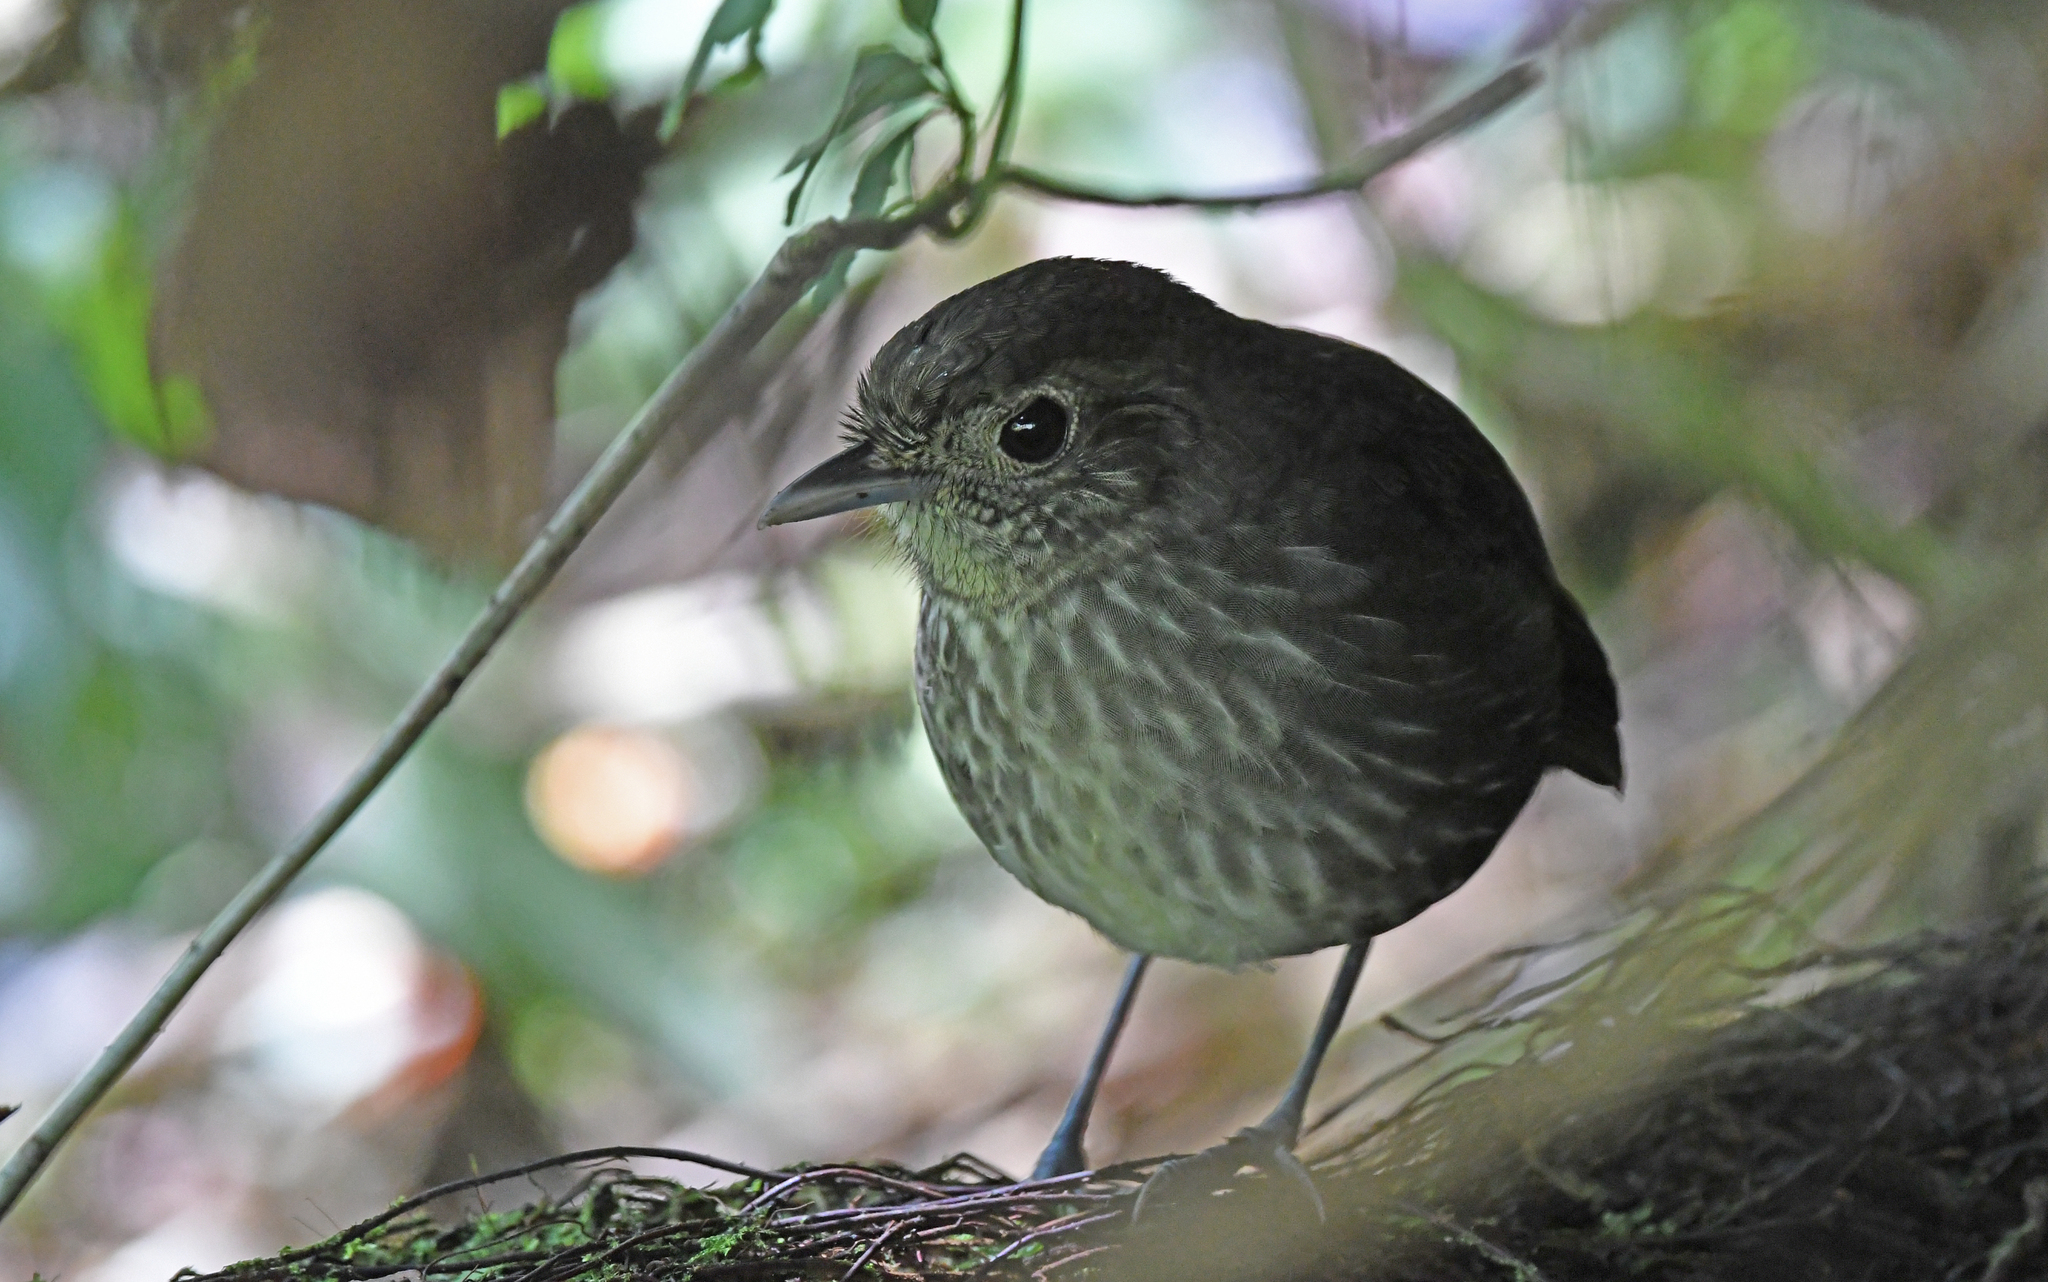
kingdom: Animalia
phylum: Chordata
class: Aves
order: Passeriformes
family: Grallariidae
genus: Grallaria
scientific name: Grallaria kaestneri
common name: Cundinamarca antpitta
